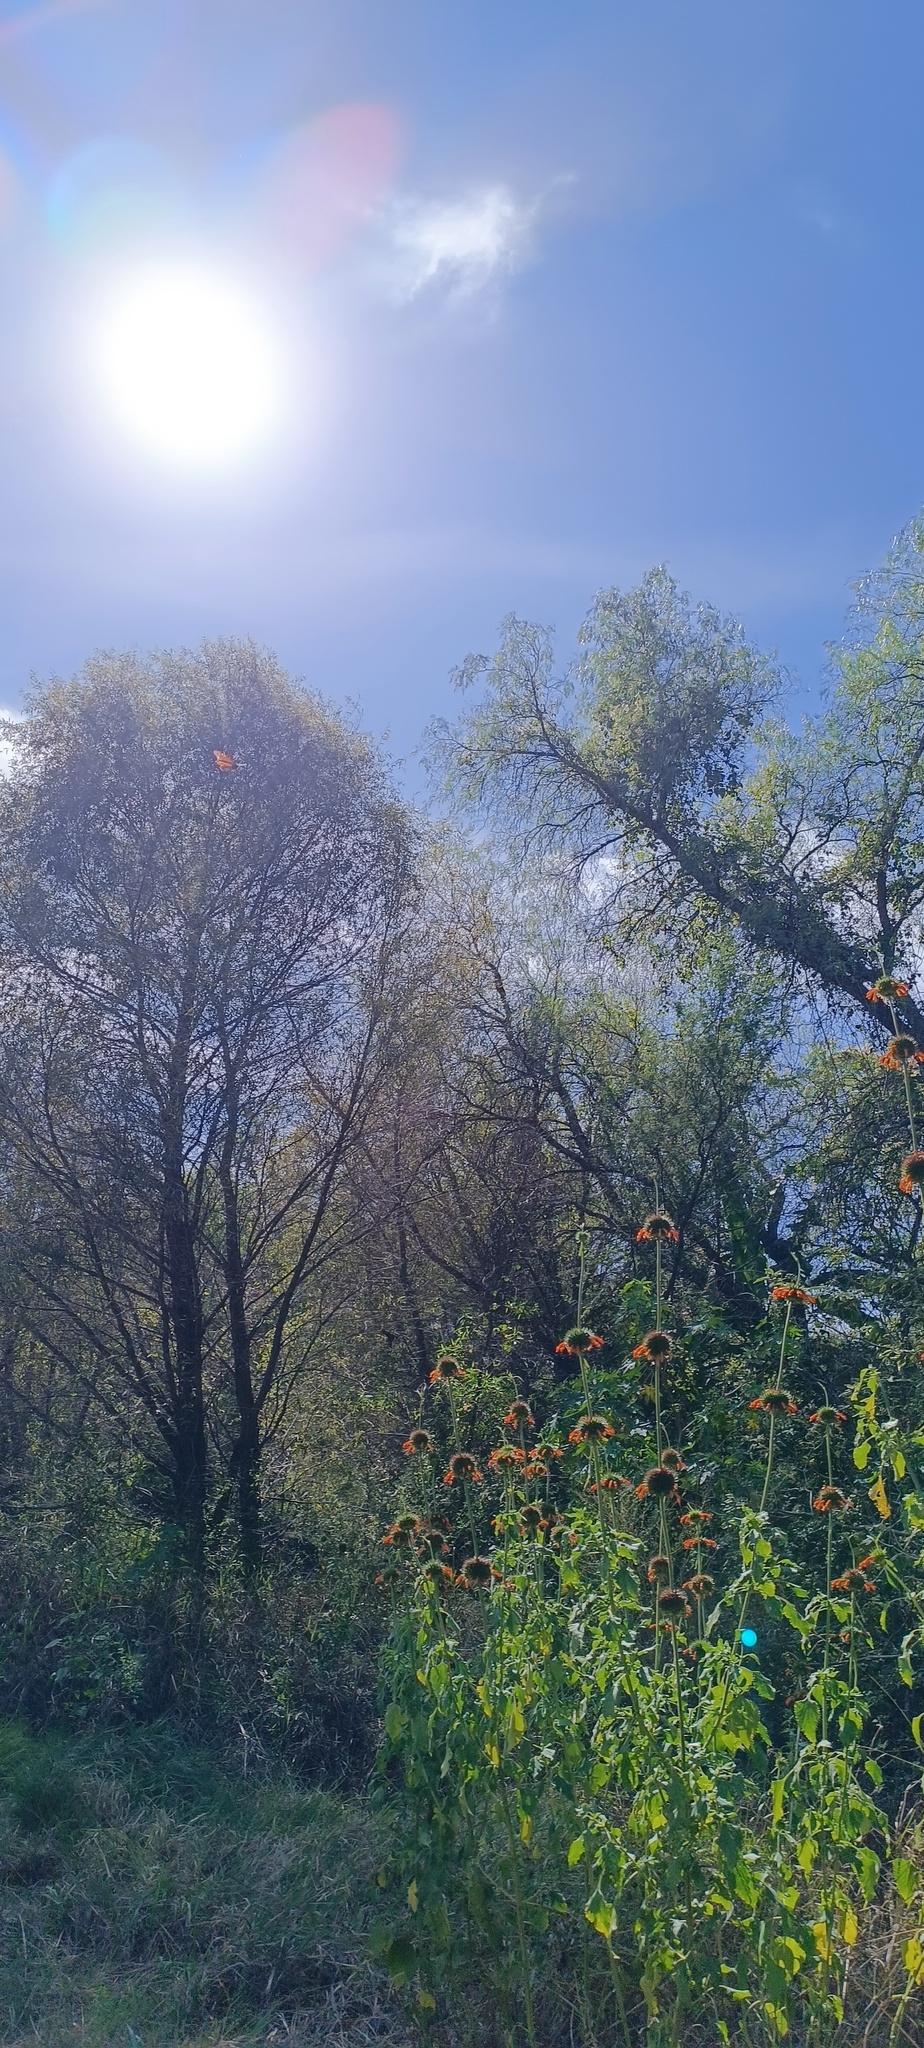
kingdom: Animalia
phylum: Arthropoda
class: Insecta
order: Lepidoptera
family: Nymphalidae
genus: Danaus
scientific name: Danaus plexippus
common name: Monarch
